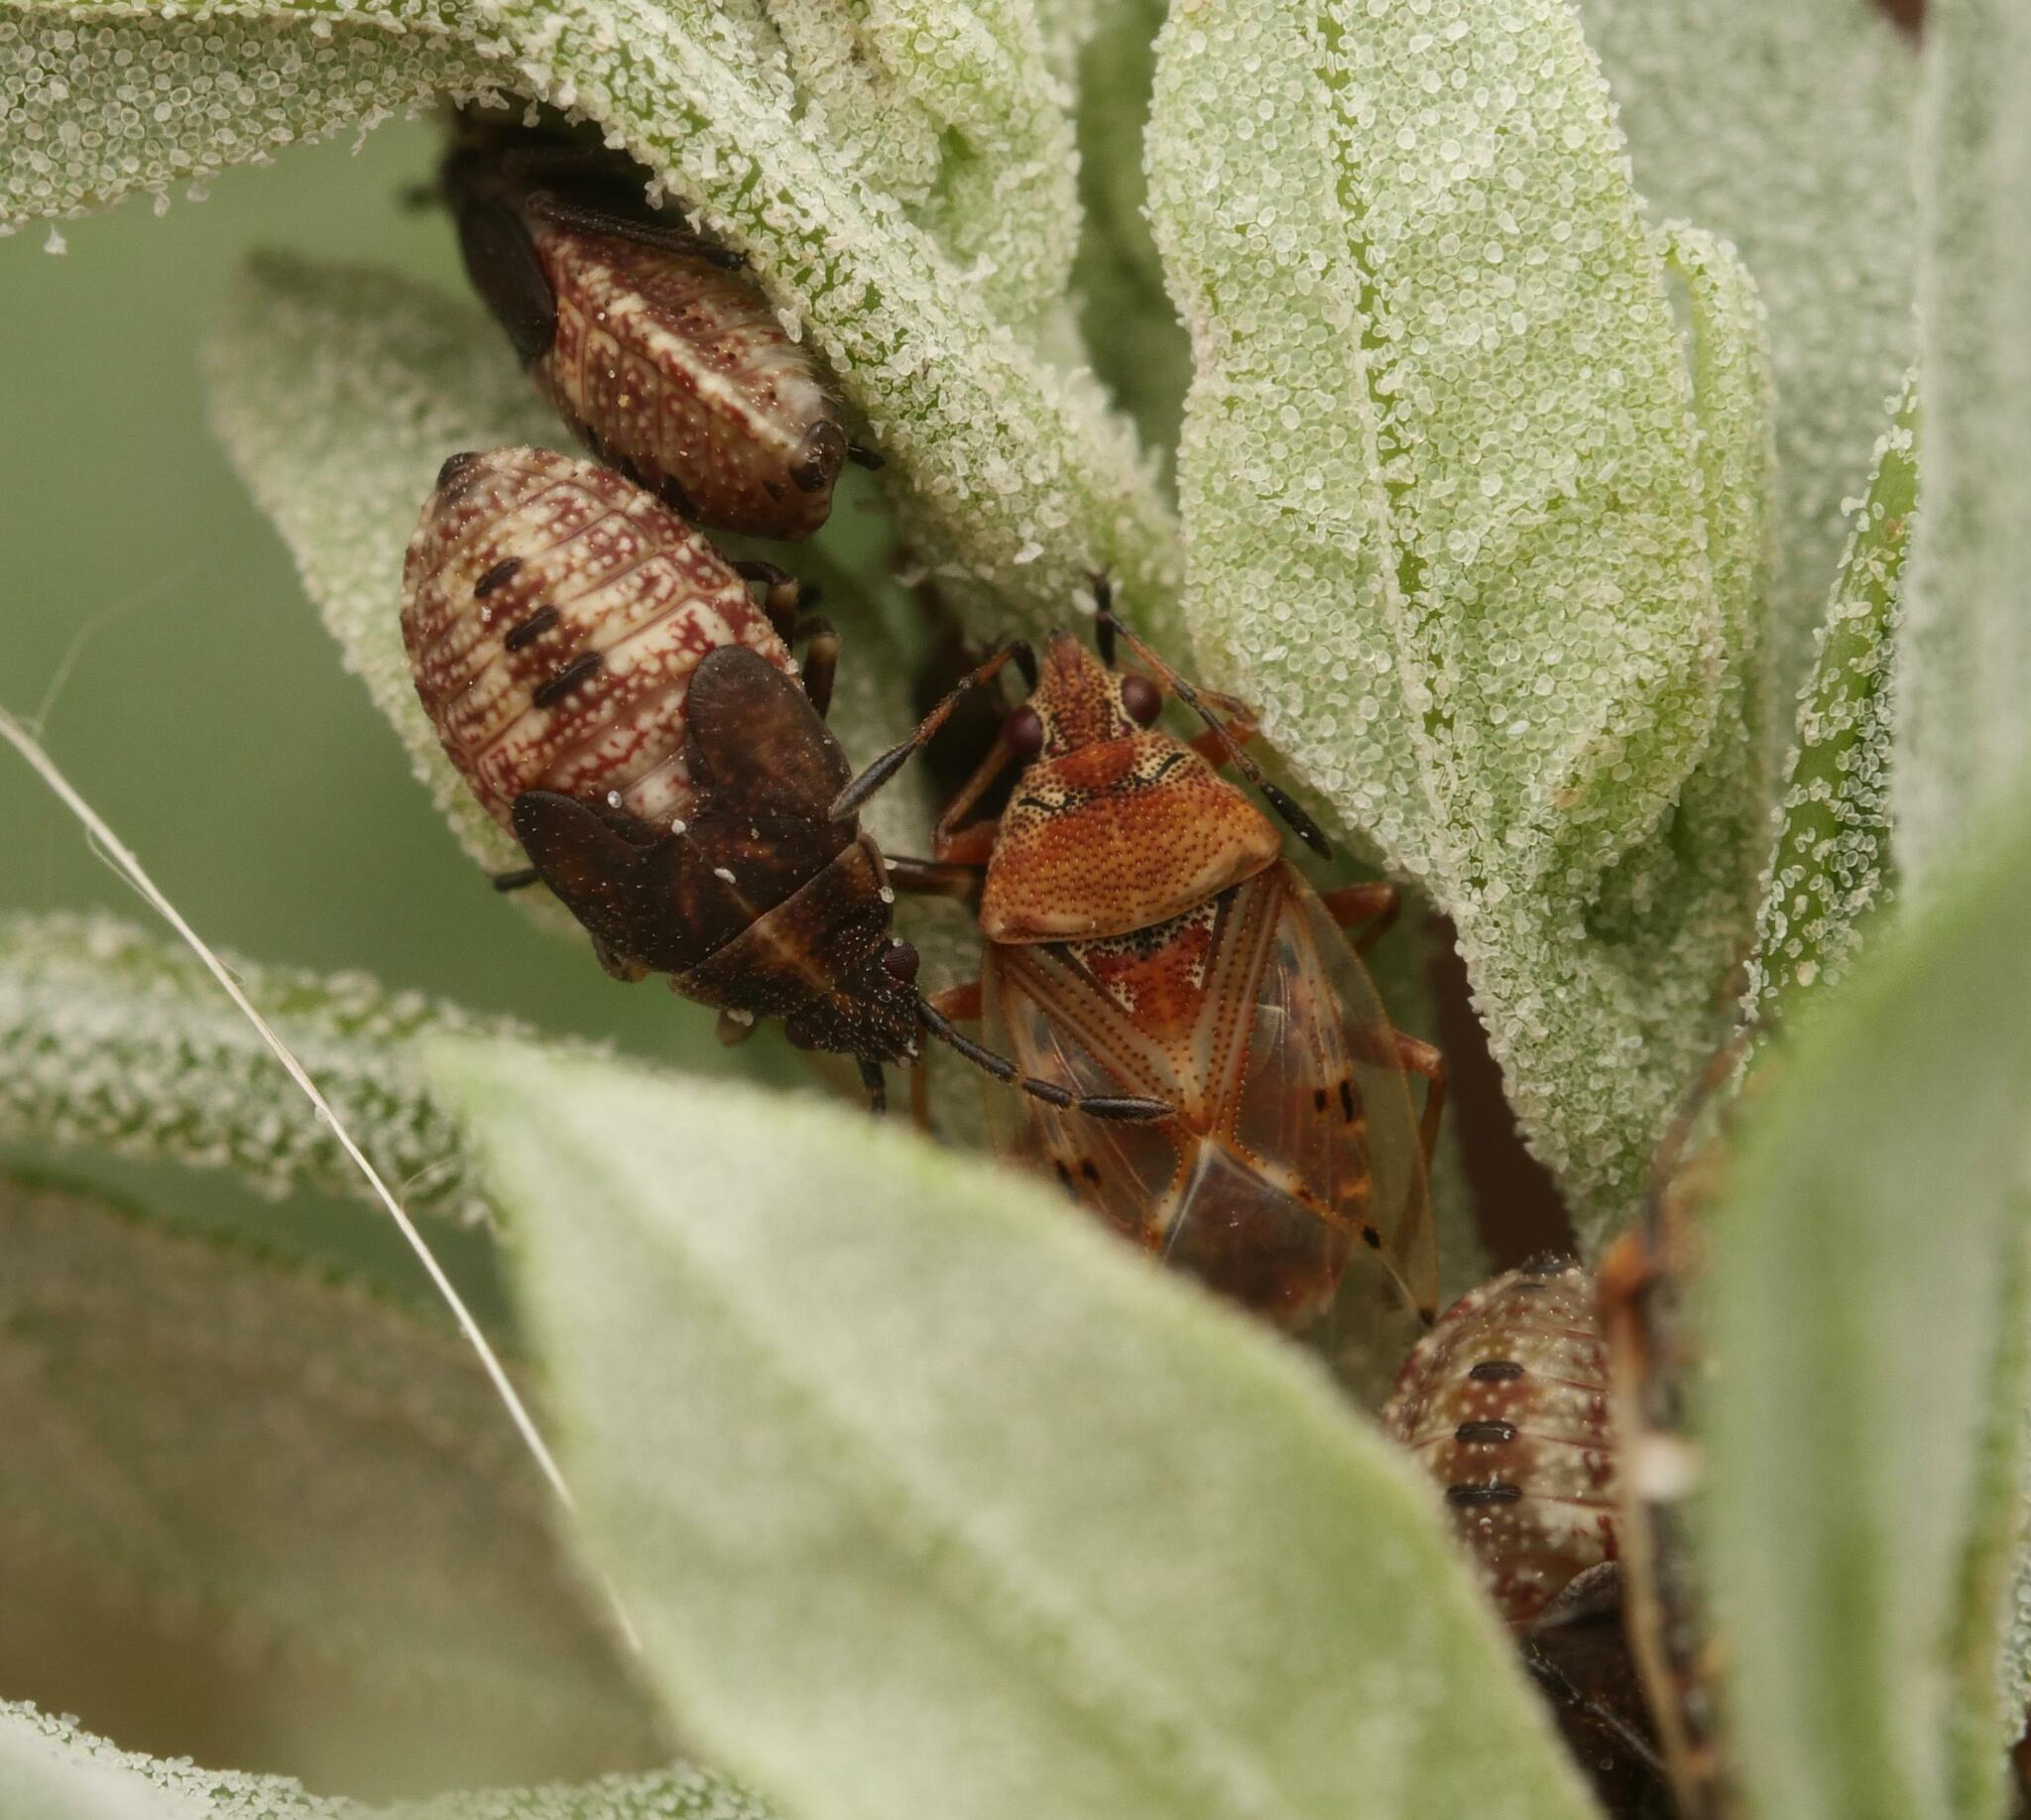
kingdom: Animalia
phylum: Arthropoda
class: Insecta
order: Hemiptera
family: Lygaeidae
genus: Kleidocerys
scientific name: Kleidocerys resedae
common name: Birch catkin bug
